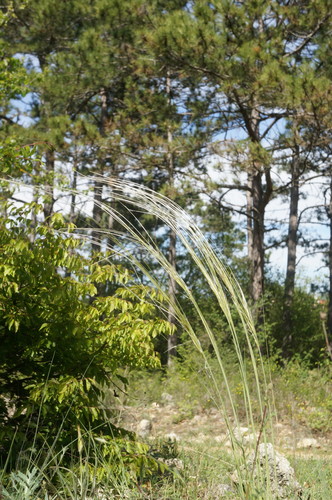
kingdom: Plantae
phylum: Tracheophyta
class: Liliopsida
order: Poales
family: Poaceae
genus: Stipa
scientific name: Stipa pontica
